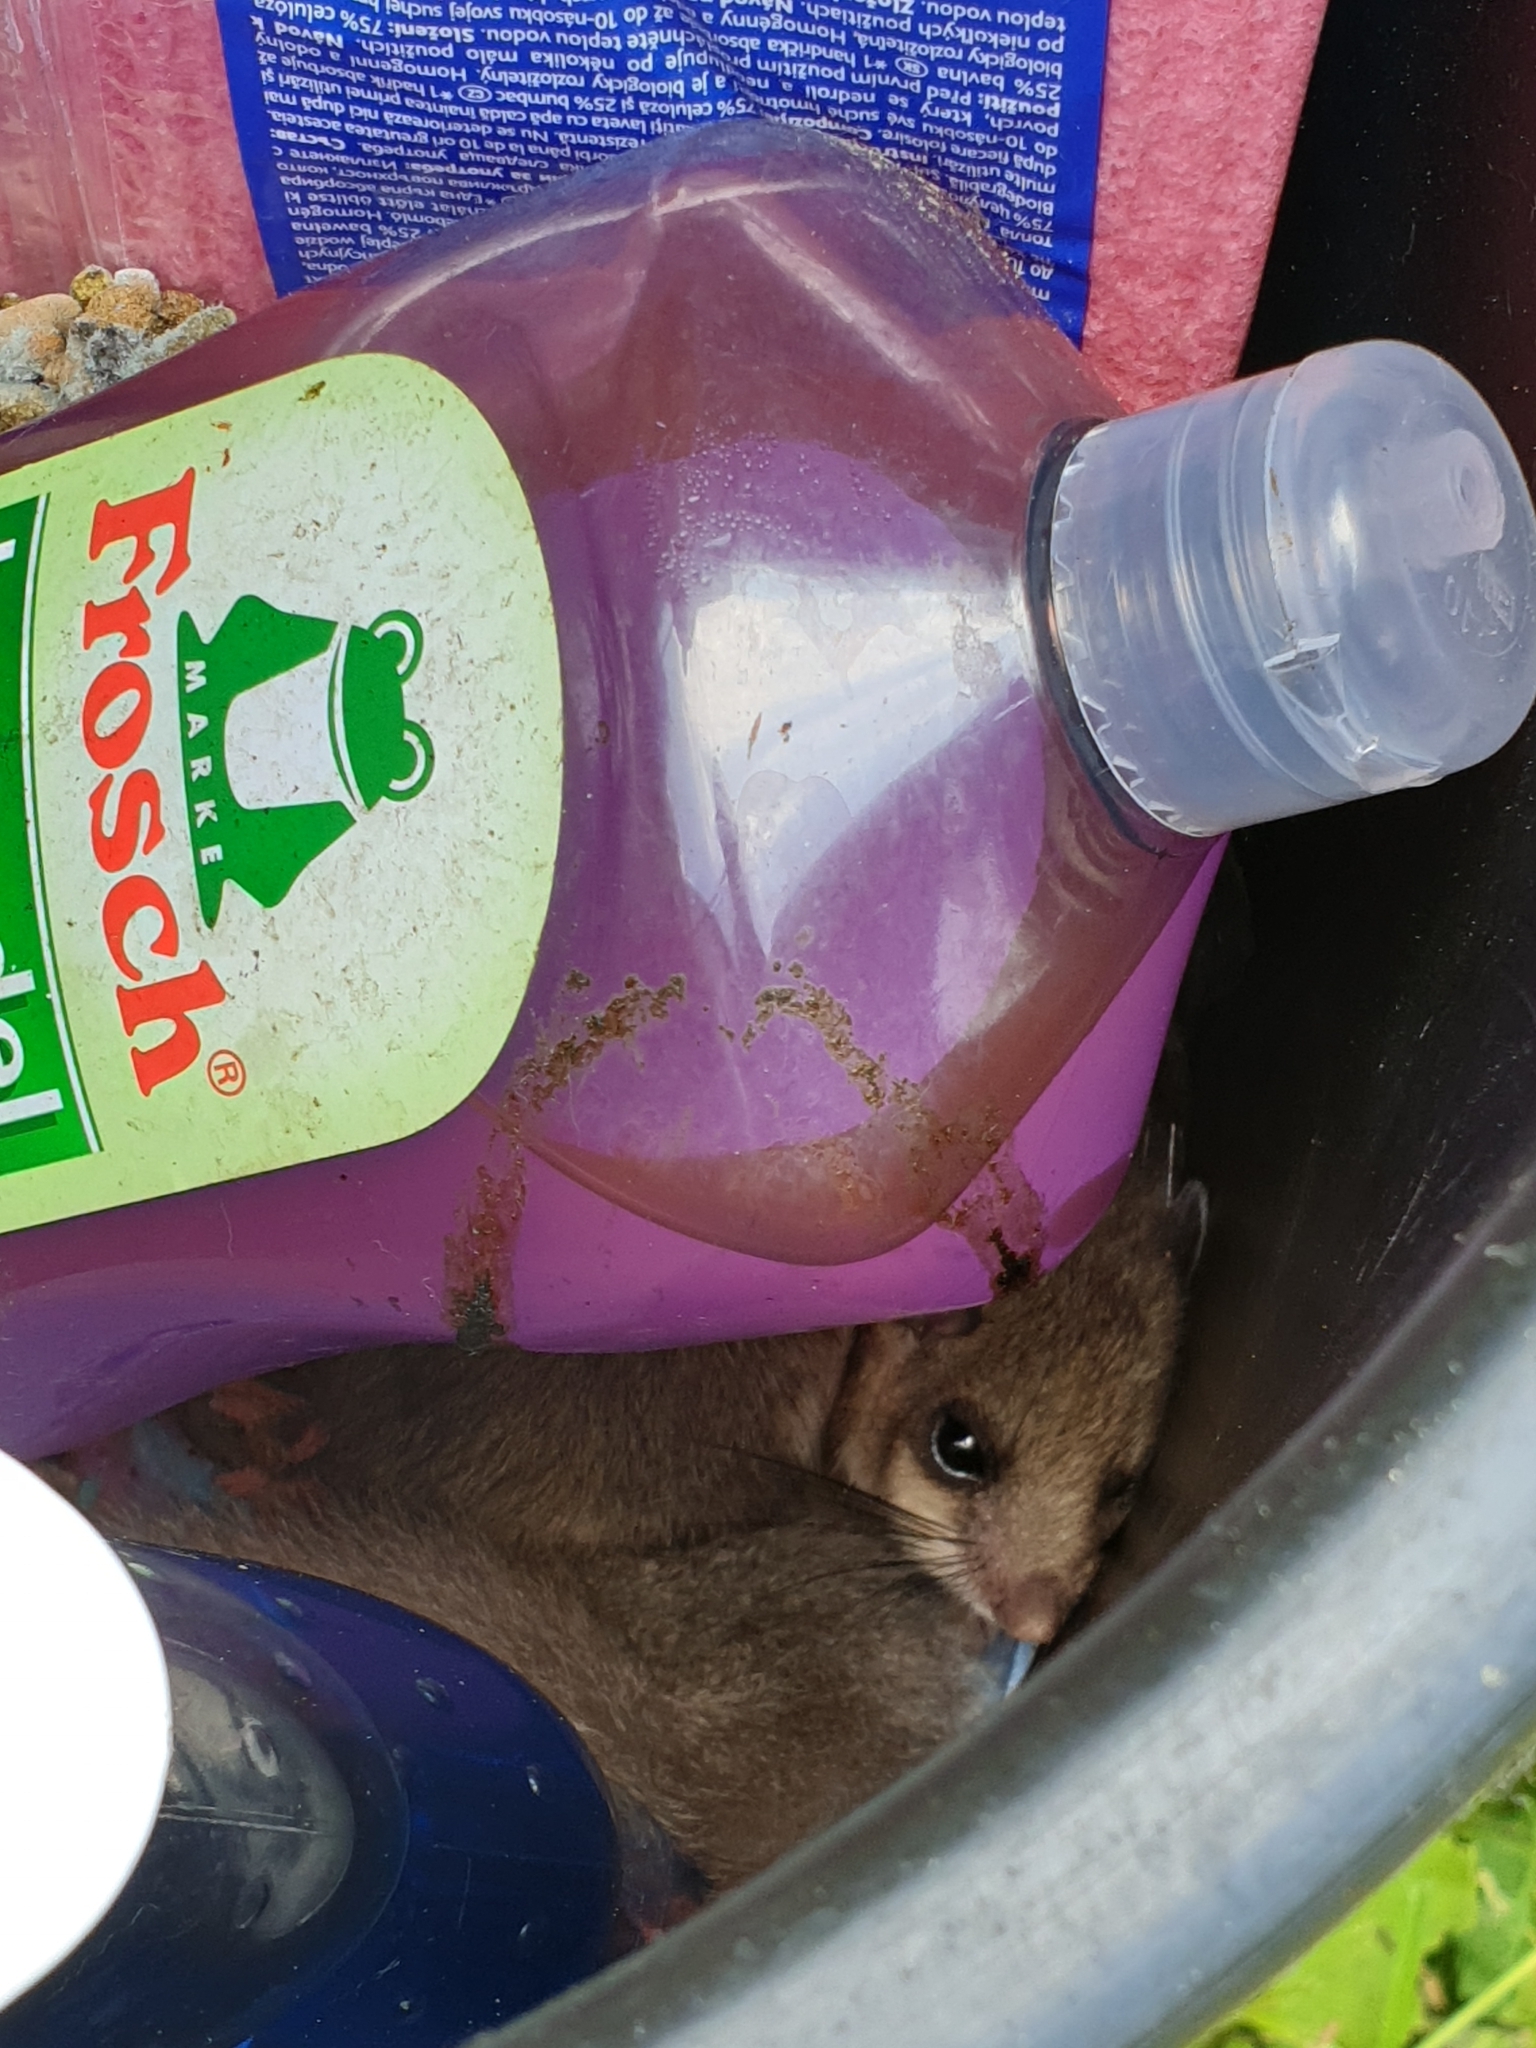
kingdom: Animalia
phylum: Chordata
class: Mammalia
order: Rodentia
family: Gliridae
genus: Glis
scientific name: Glis glis
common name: Fat dormouse
